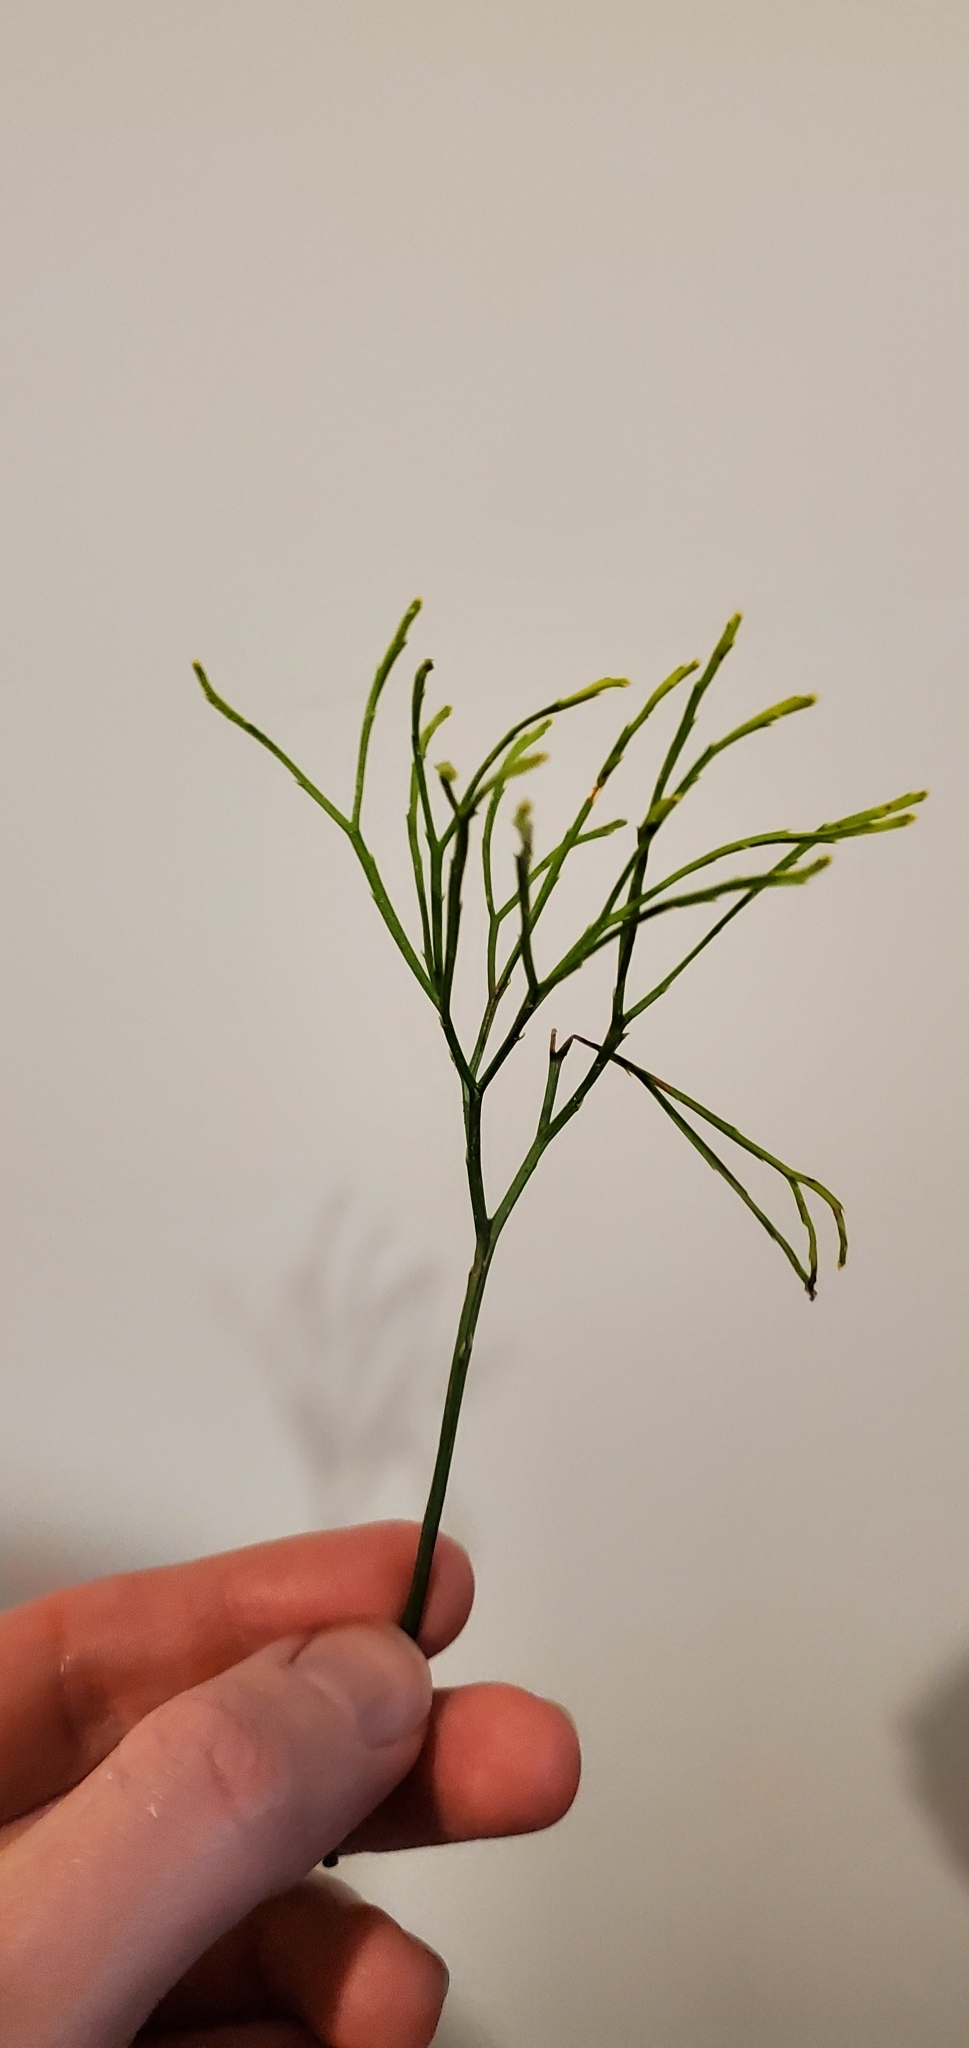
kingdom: Plantae
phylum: Tracheophyta
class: Polypodiopsida
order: Psilotales
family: Psilotaceae
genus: Psilotum
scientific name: Psilotum nudum
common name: Skeleton fork fern
